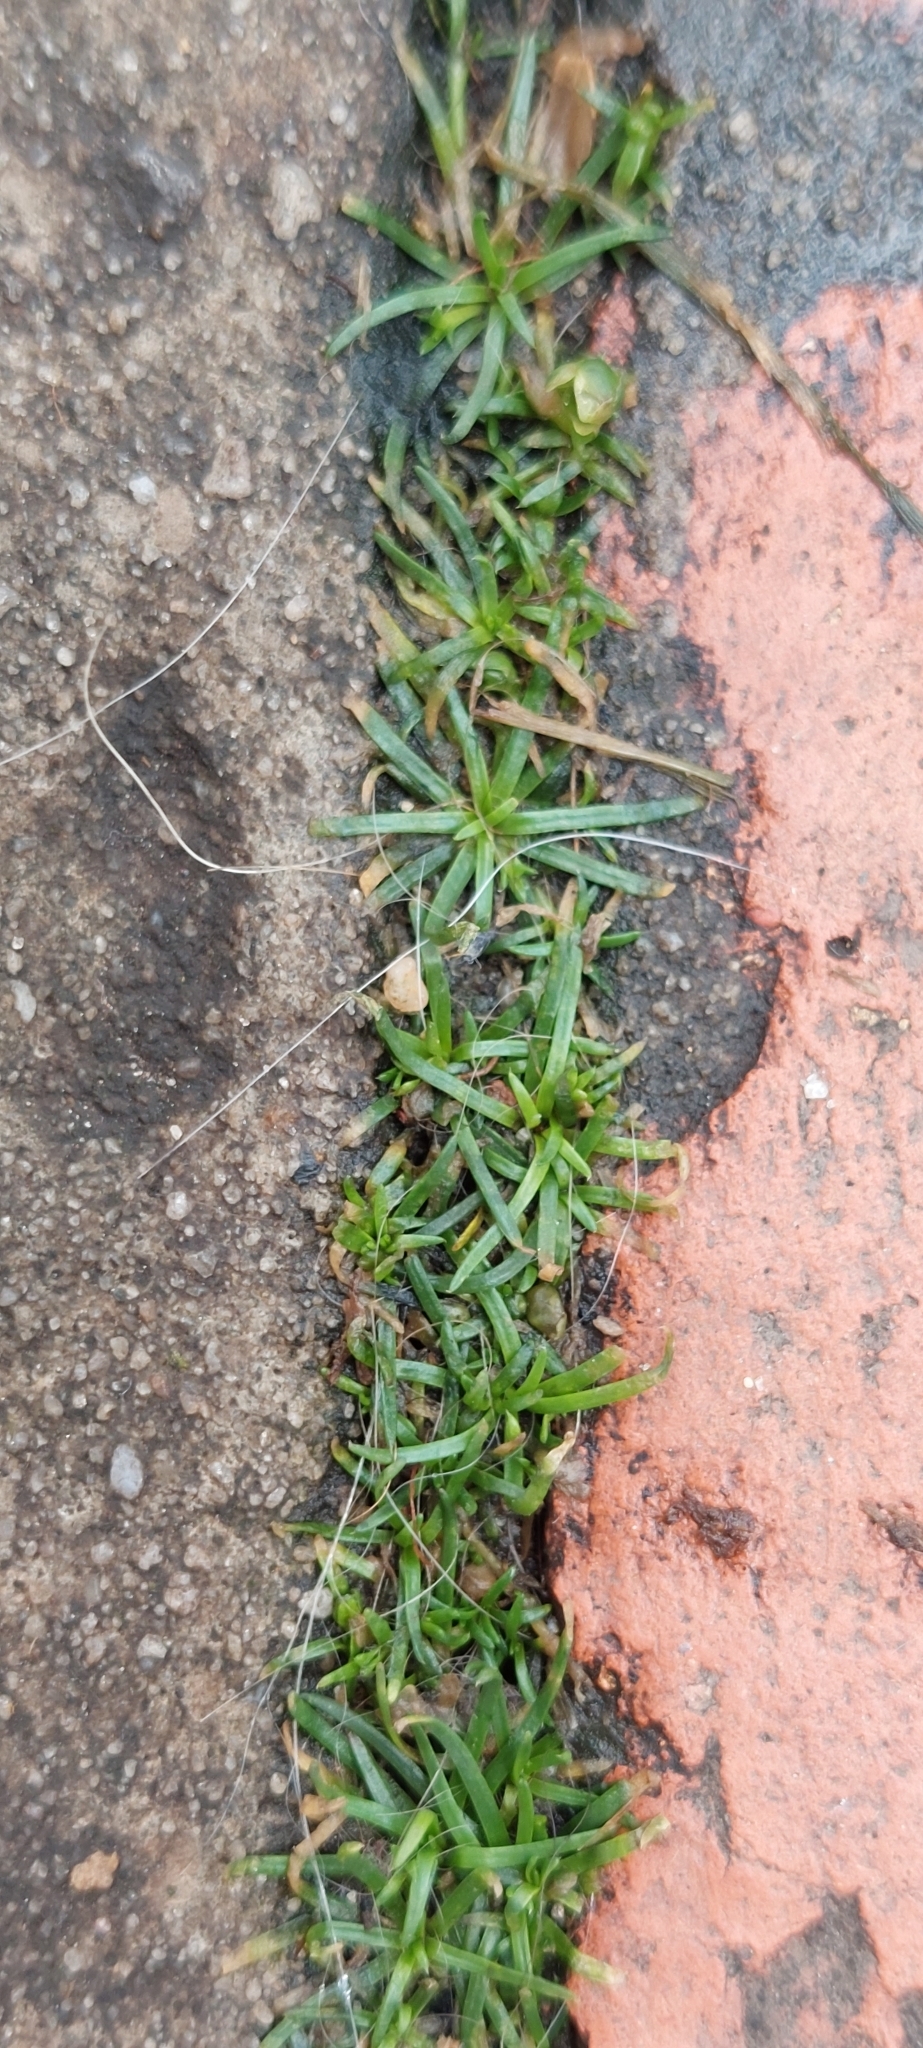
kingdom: Plantae
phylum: Tracheophyta
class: Magnoliopsida
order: Caryophyllales
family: Caryophyllaceae
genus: Sagina
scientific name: Sagina procumbens
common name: Procumbent pearlwort
